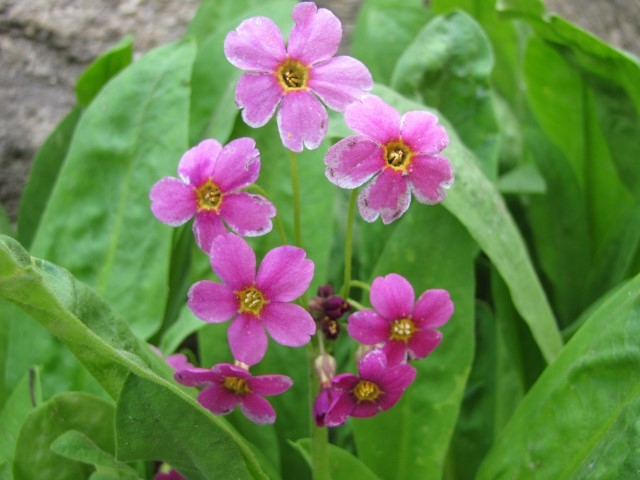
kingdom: Plantae
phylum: Tracheophyta
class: Magnoliopsida
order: Ericales
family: Primulaceae
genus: Primula
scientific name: Primula parryi
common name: Parry's primrose
